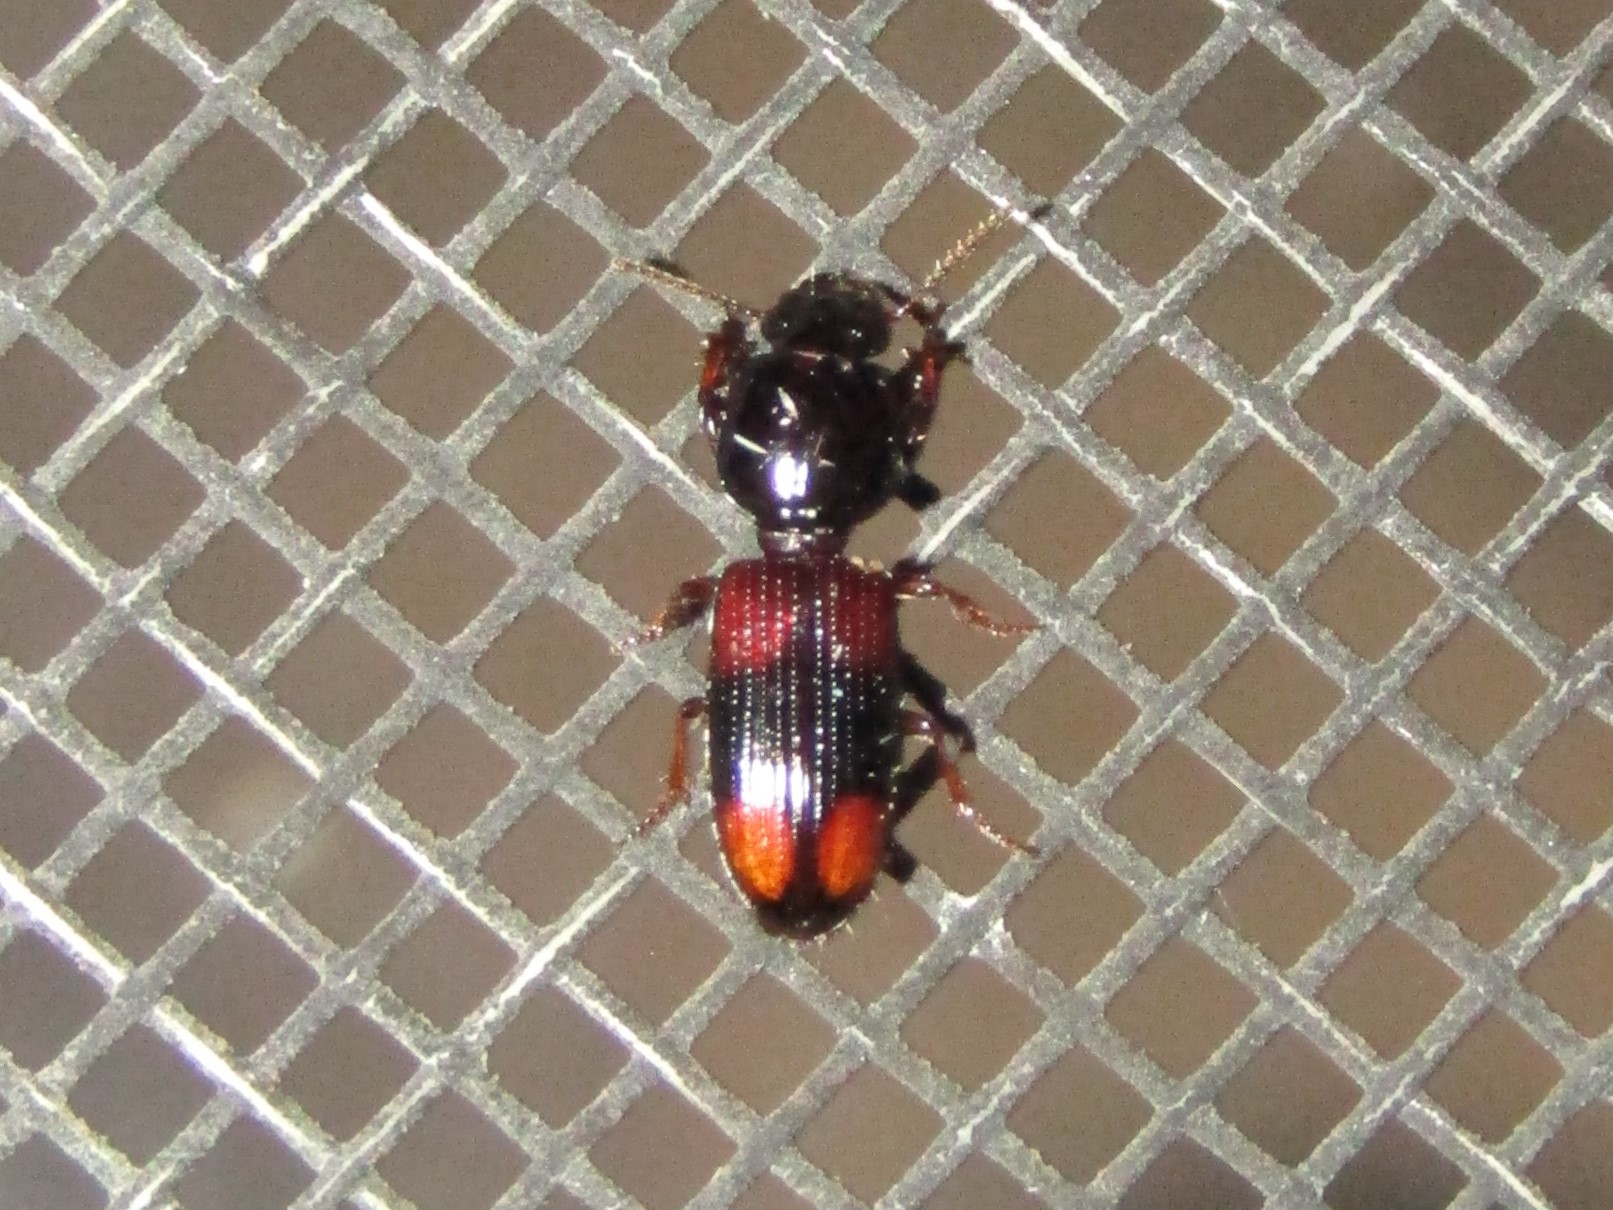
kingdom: Animalia
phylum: Arthropoda
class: Insecta
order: Coleoptera
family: Carabidae
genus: Clivina
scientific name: Clivina bipustulata
